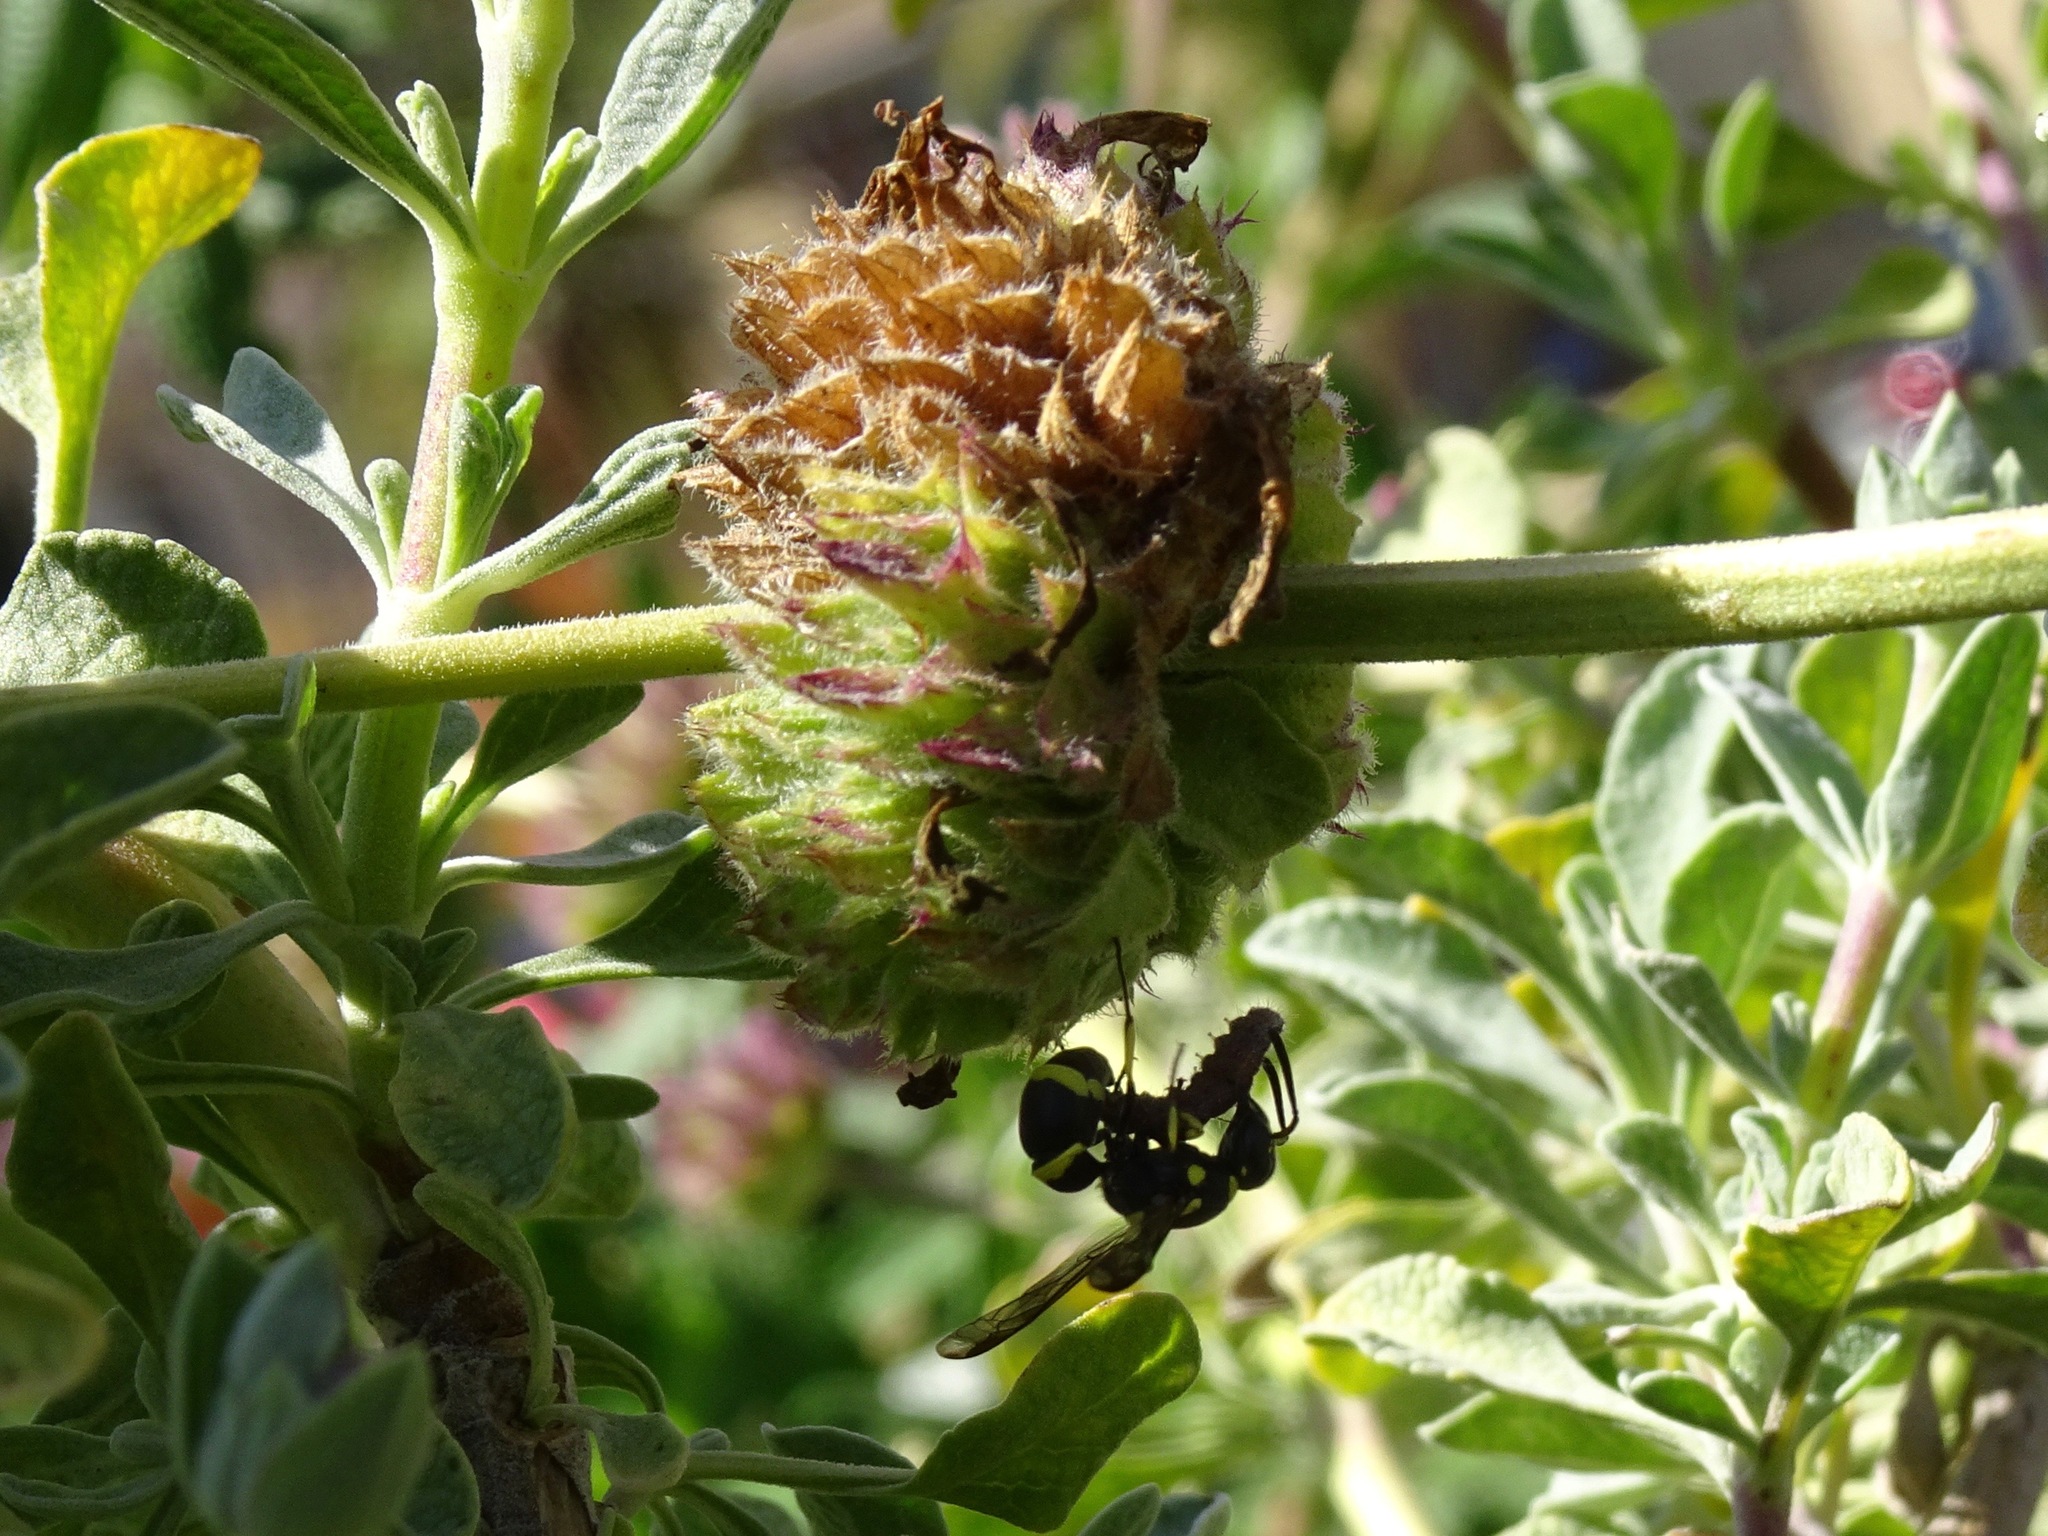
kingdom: Animalia
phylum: Arthropoda
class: Insecta
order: Hymenoptera
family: Eumenidae
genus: Parancistrocerus
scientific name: Parancistrocerus declivatus
